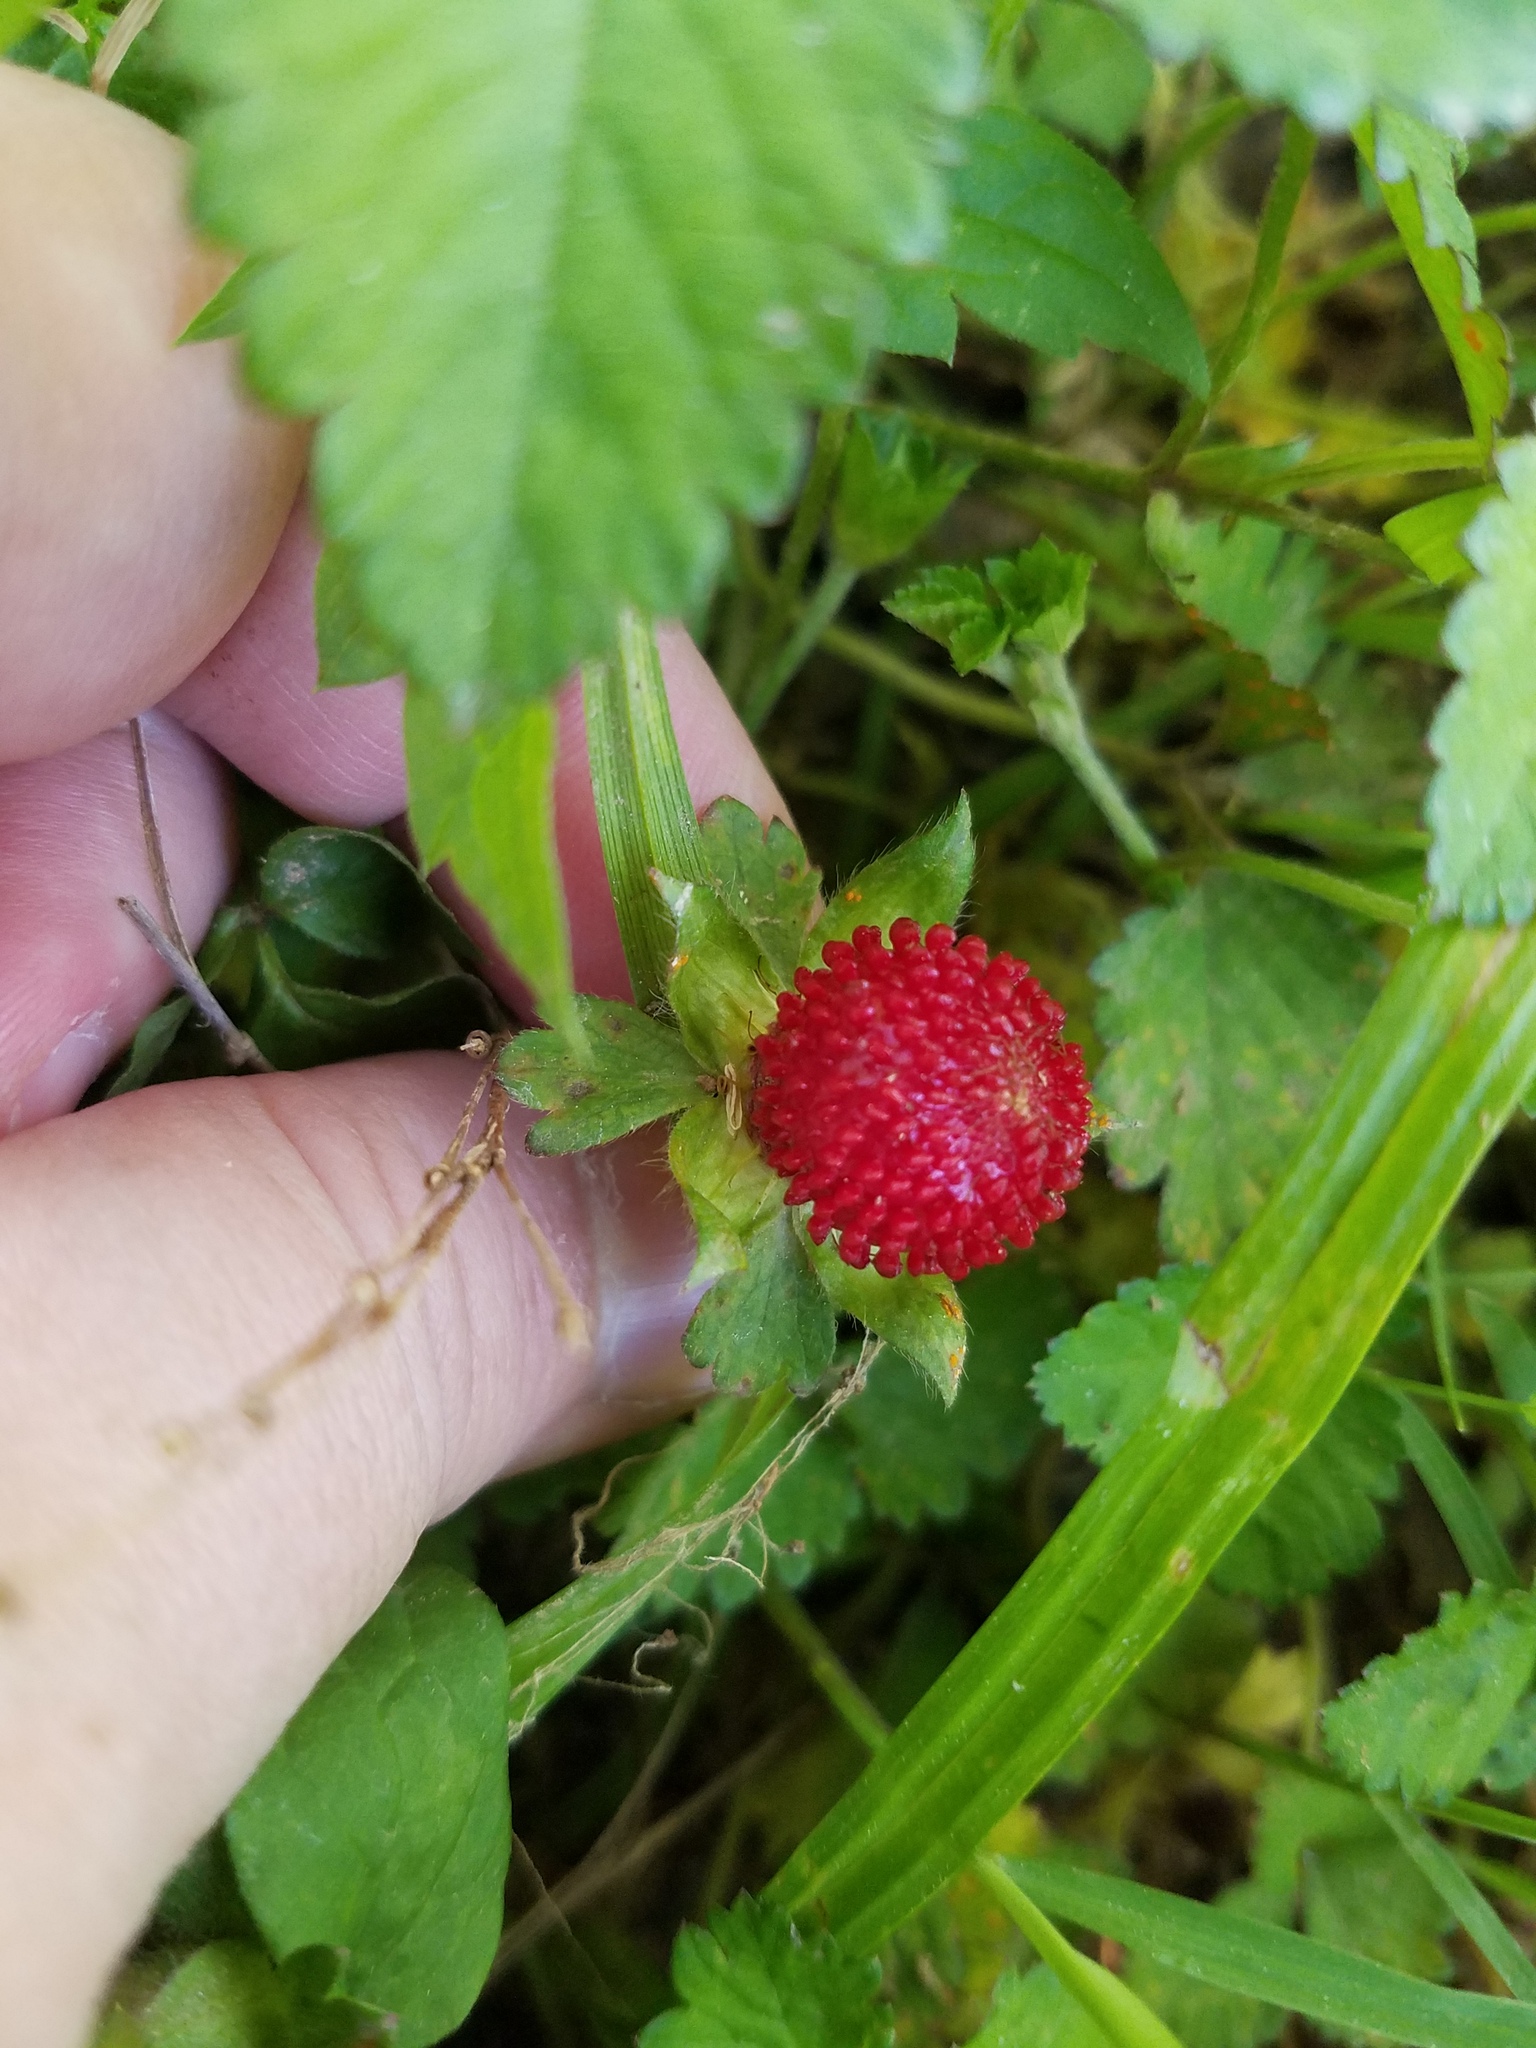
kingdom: Plantae
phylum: Tracheophyta
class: Magnoliopsida
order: Rosales
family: Rosaceae
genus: Potentilla
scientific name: Potentilla indica
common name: Yellow-flowered strawberry
